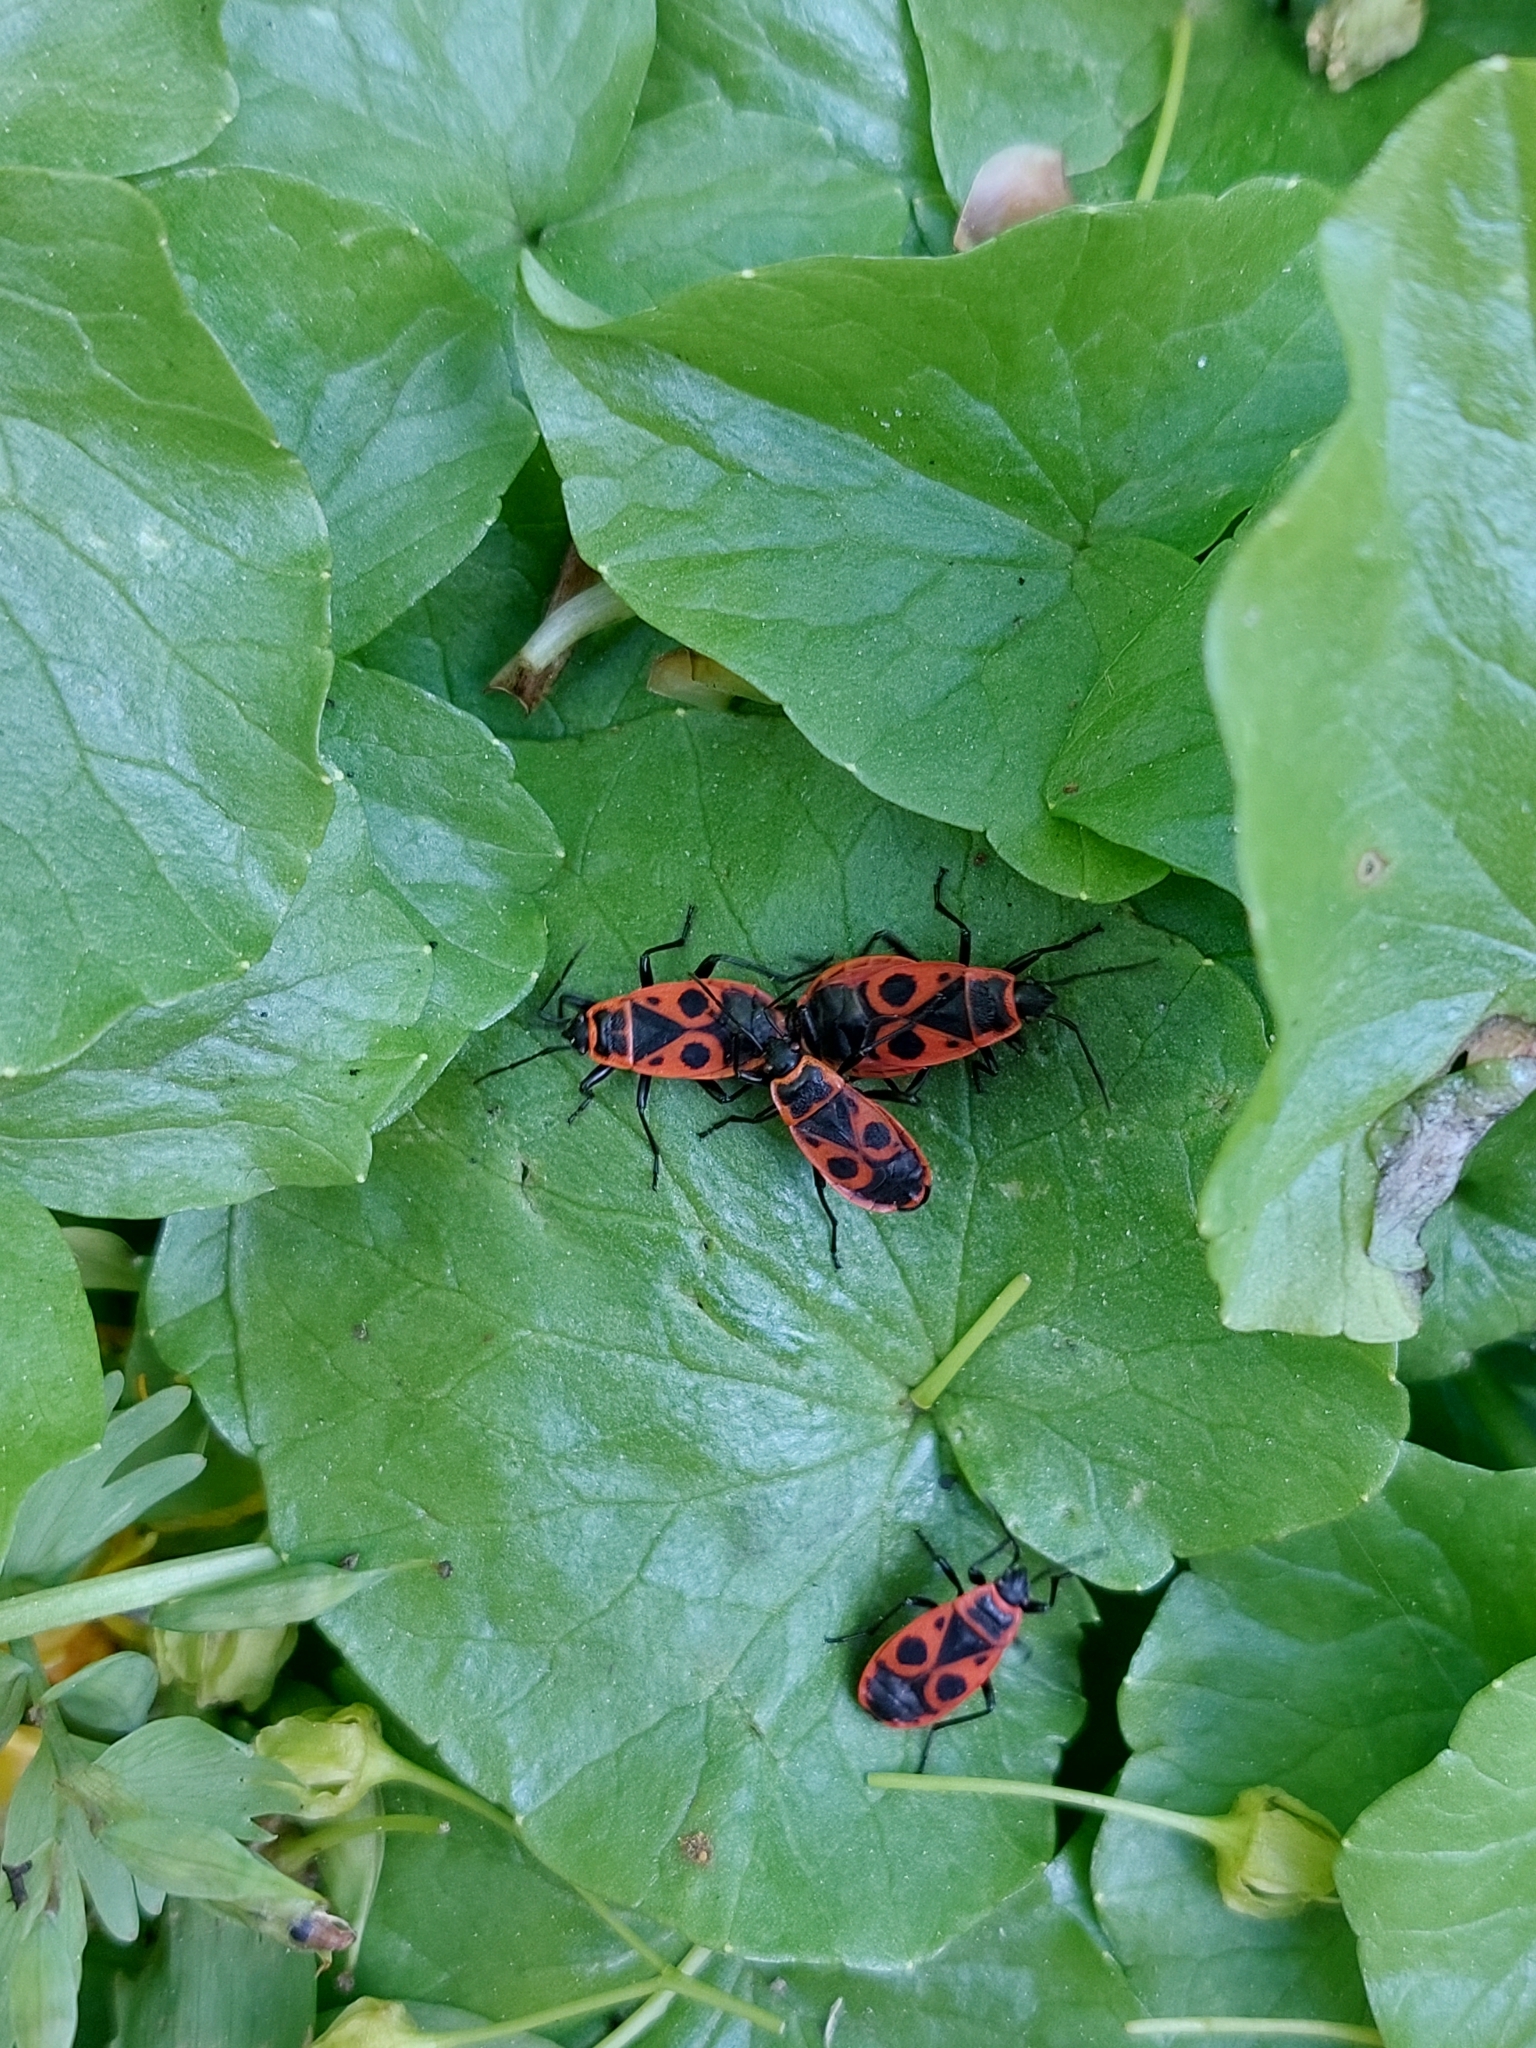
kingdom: Animalia
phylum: Arthropoda
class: Insecta
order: Hemiptera
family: Pyrrhocoridae
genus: Pyrrhocoris
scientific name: Pyrrhocoris apterus
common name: Firebug
